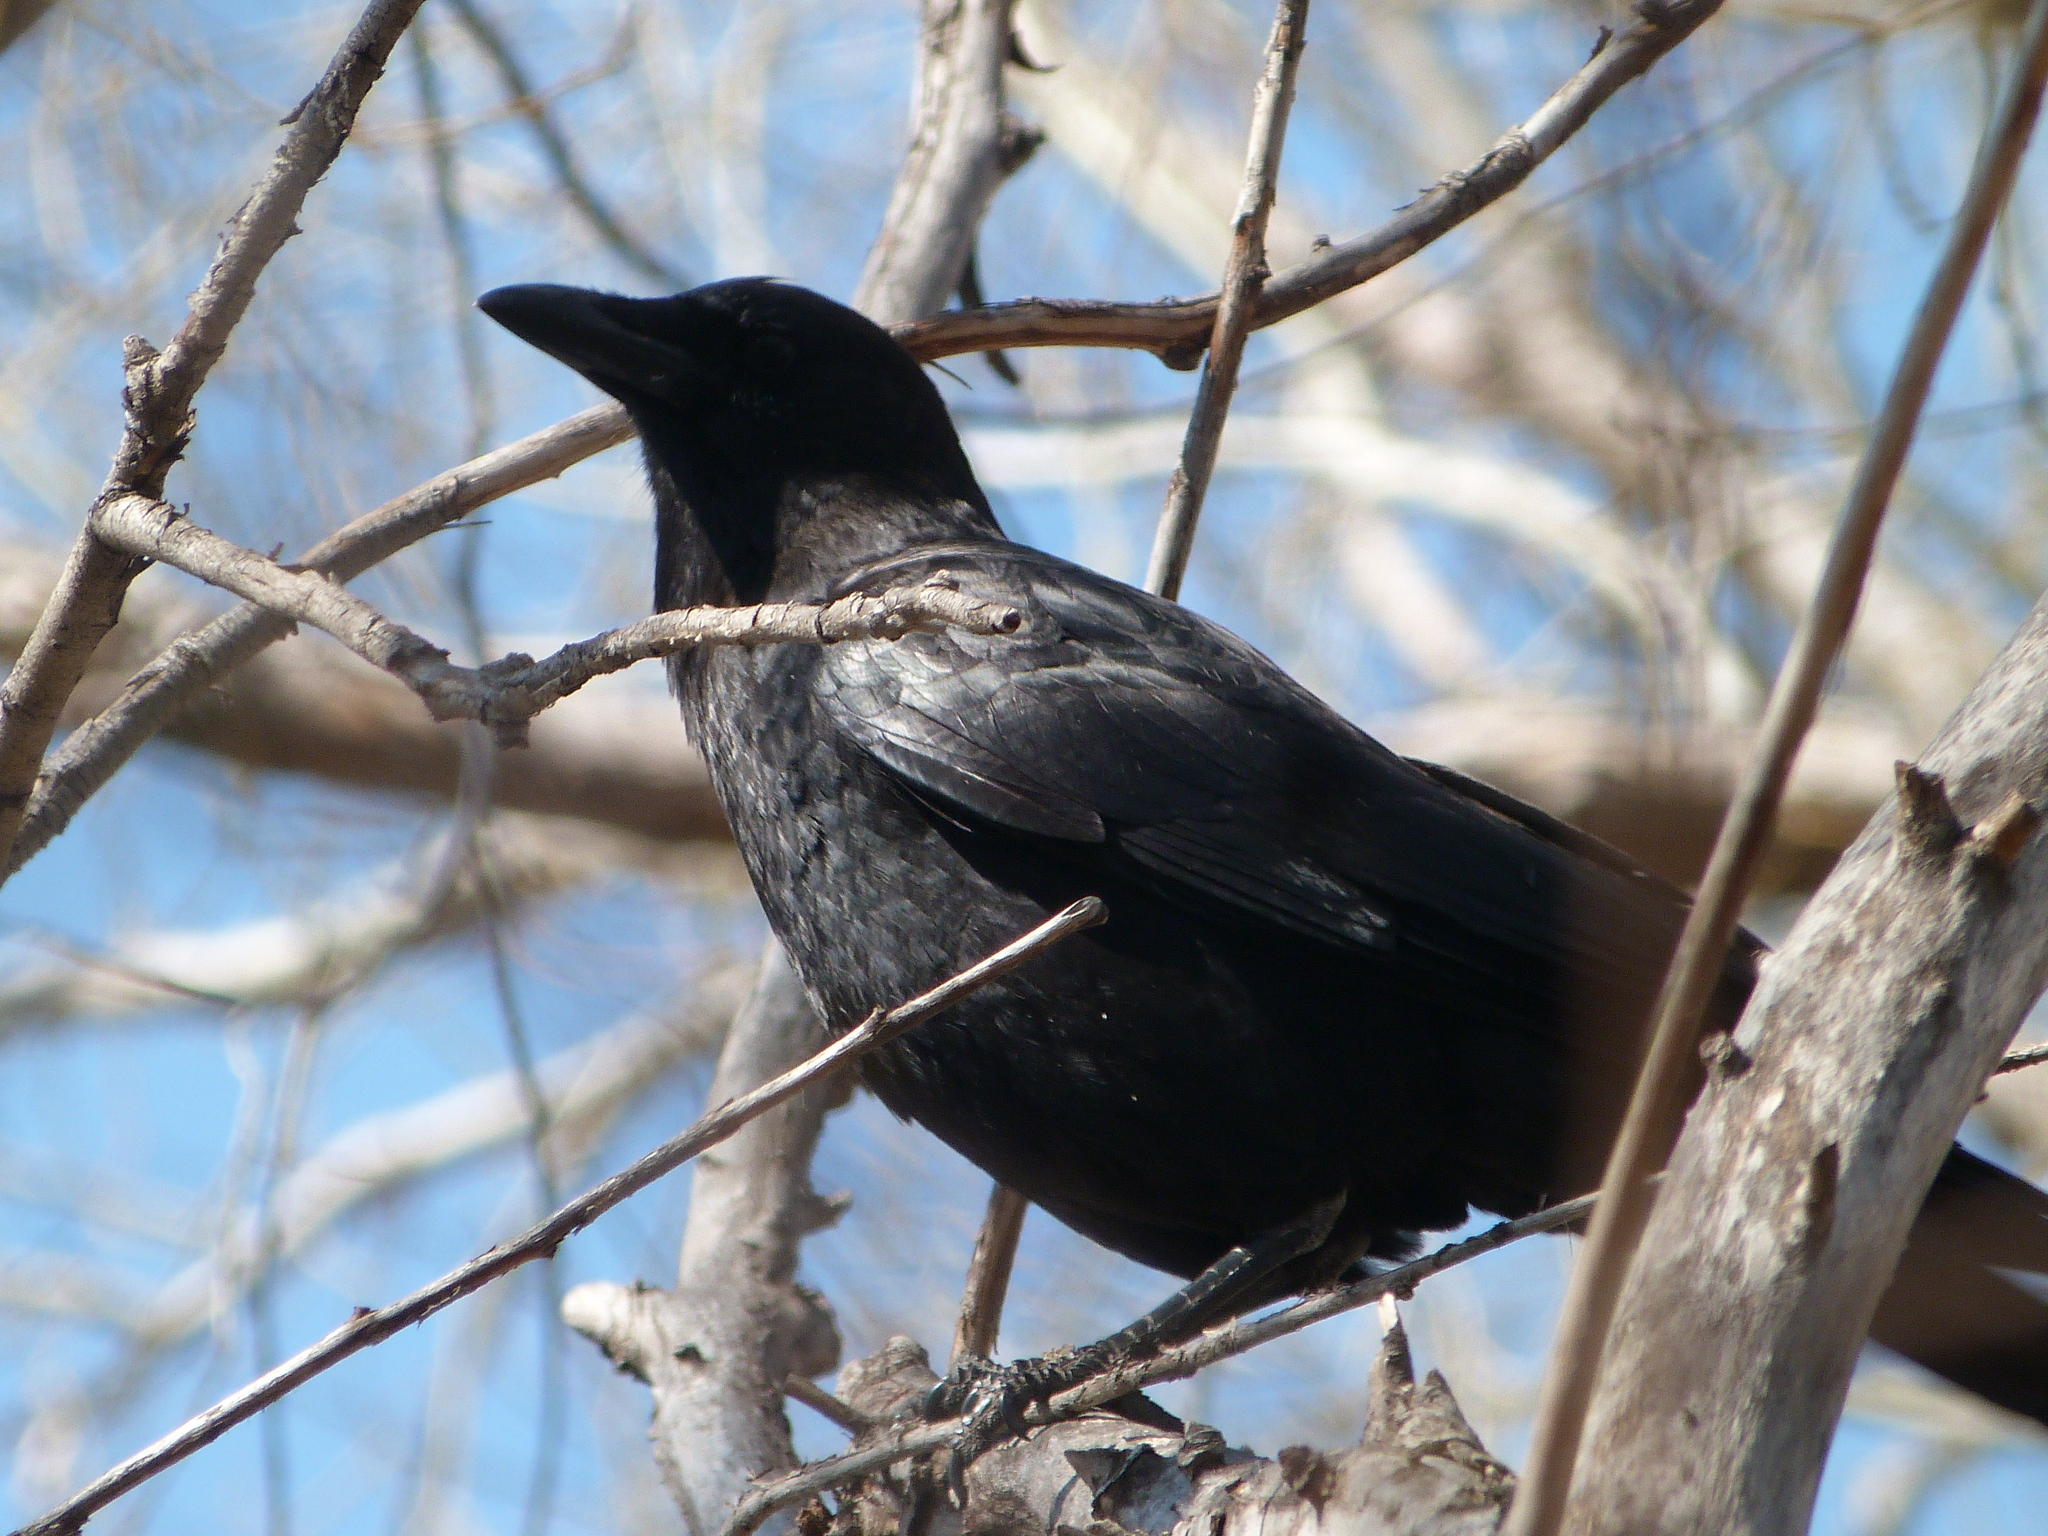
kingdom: Animalia
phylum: Chordata
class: Aves
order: Passeriformes
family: Corvidae
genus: Corvus
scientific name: Corvus brachyrhynchos
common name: American crow
